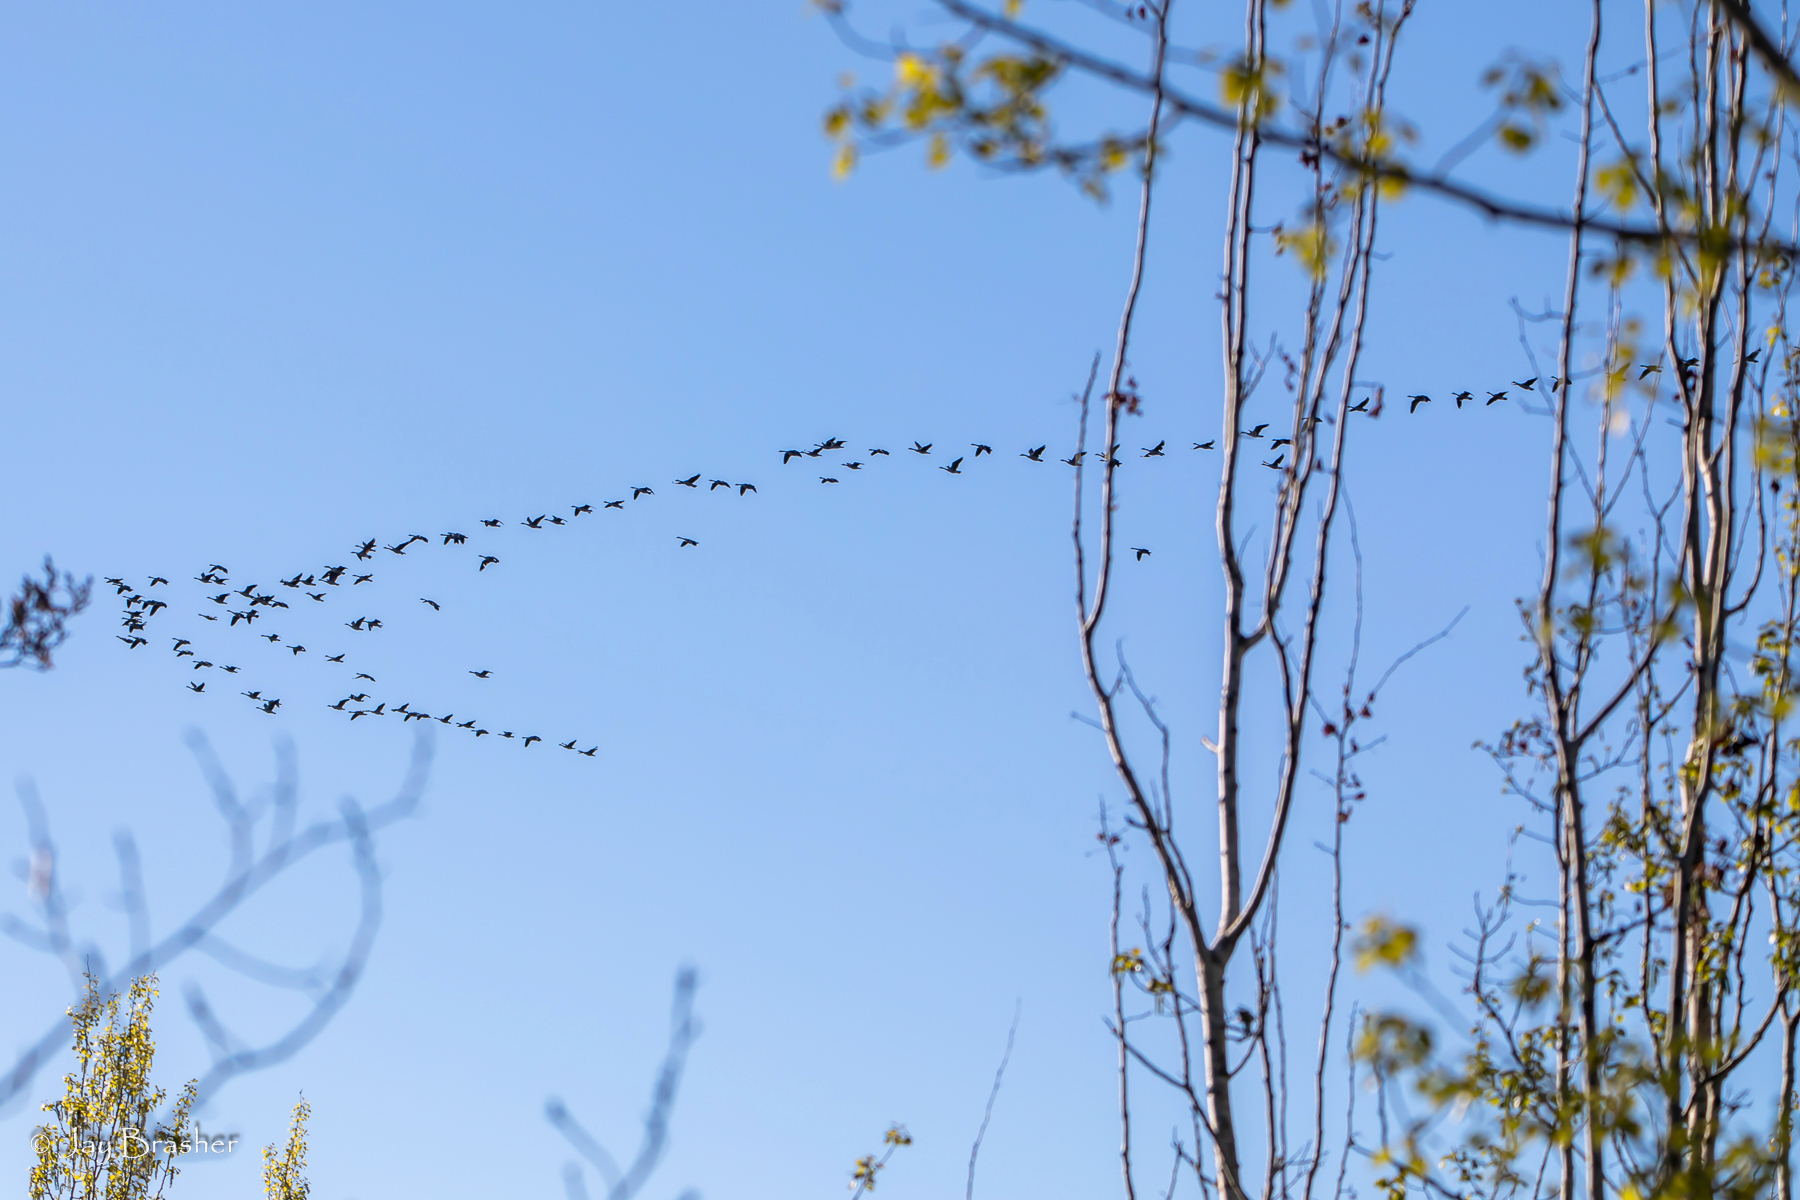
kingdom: Animalia
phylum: Chordata
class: Aves
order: Anseriformes
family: Anatidae
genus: Branta
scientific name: Branta canadensis
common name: Canada goose
